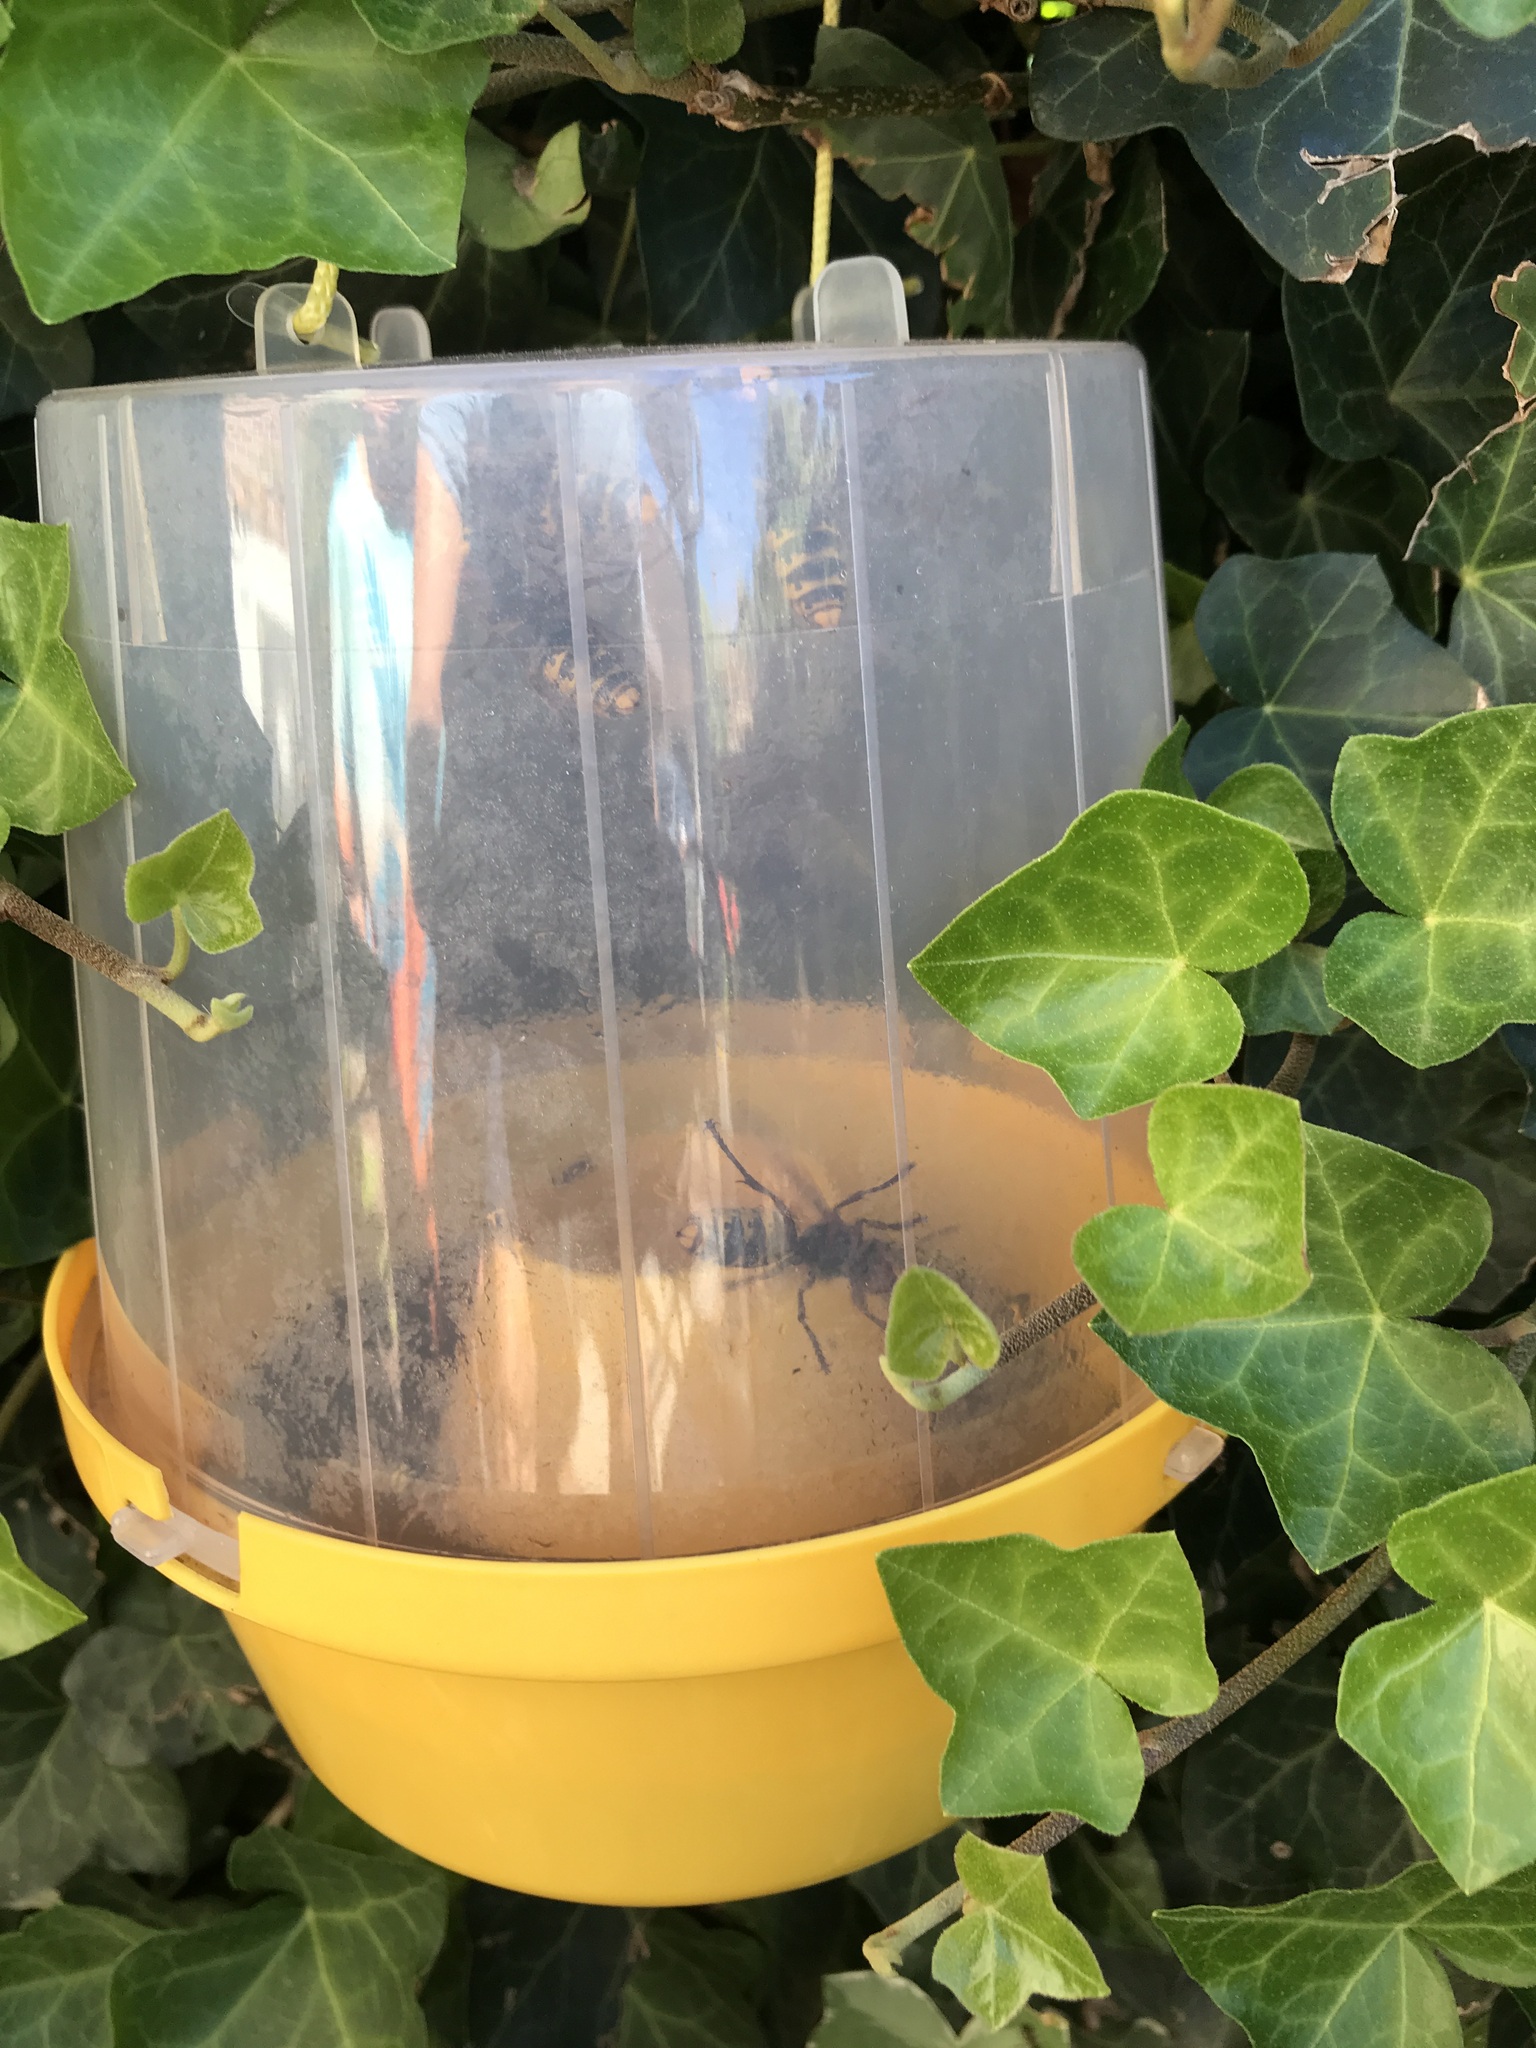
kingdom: Animalia
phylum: Arthropoda
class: Insecta
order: Hymenoptera
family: Vespidae
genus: Vespa
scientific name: Vespa crabro
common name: Hornet
